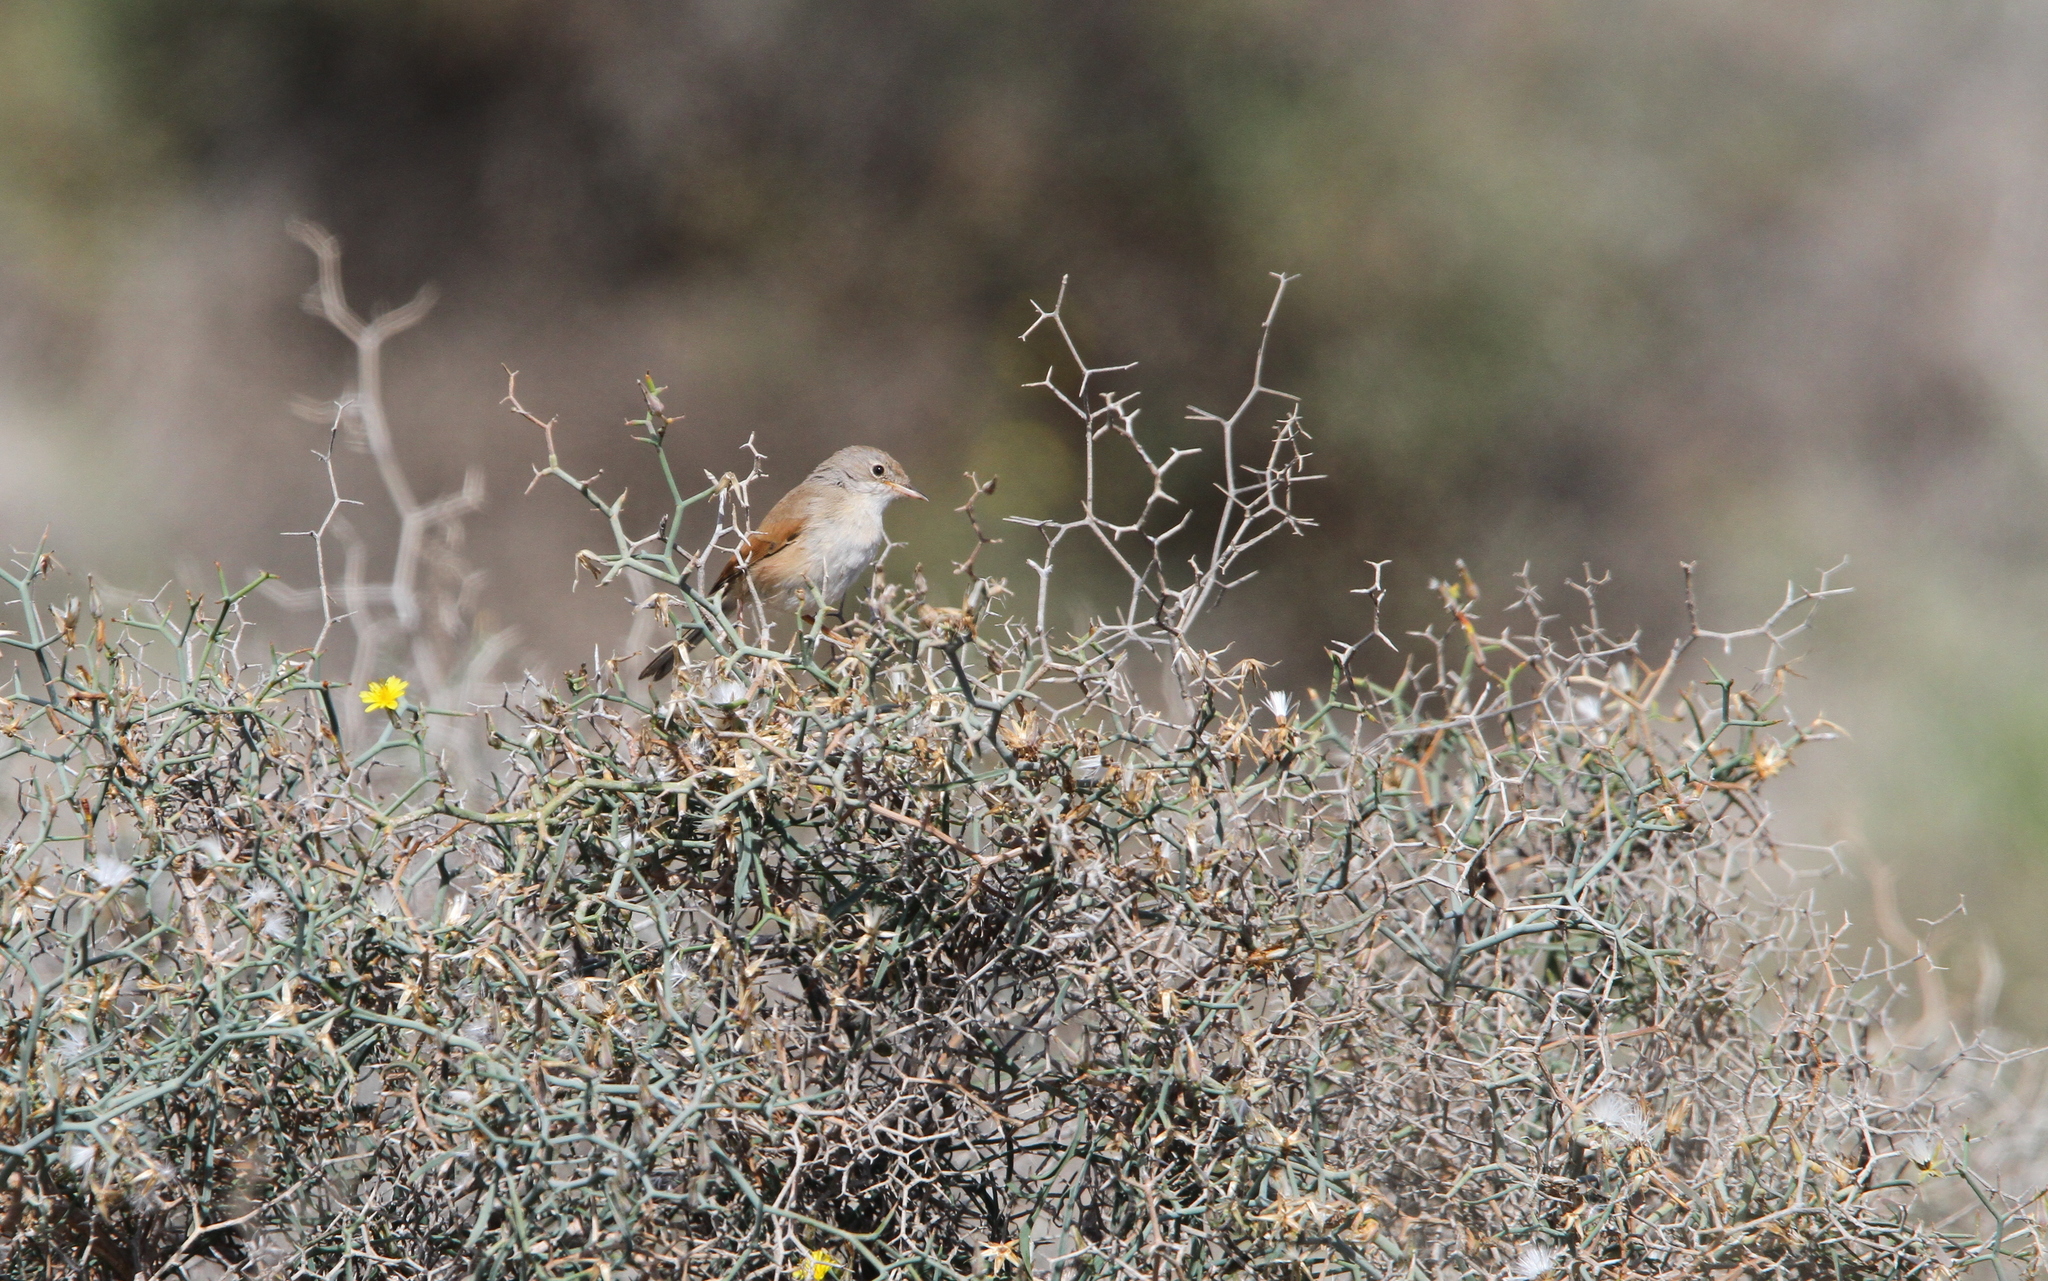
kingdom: Animalia
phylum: Chordata
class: Aves
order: Passeriformes
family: Sylviidae
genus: Sylvia
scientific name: Sylvia conspicillata
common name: Spectacled warbler
